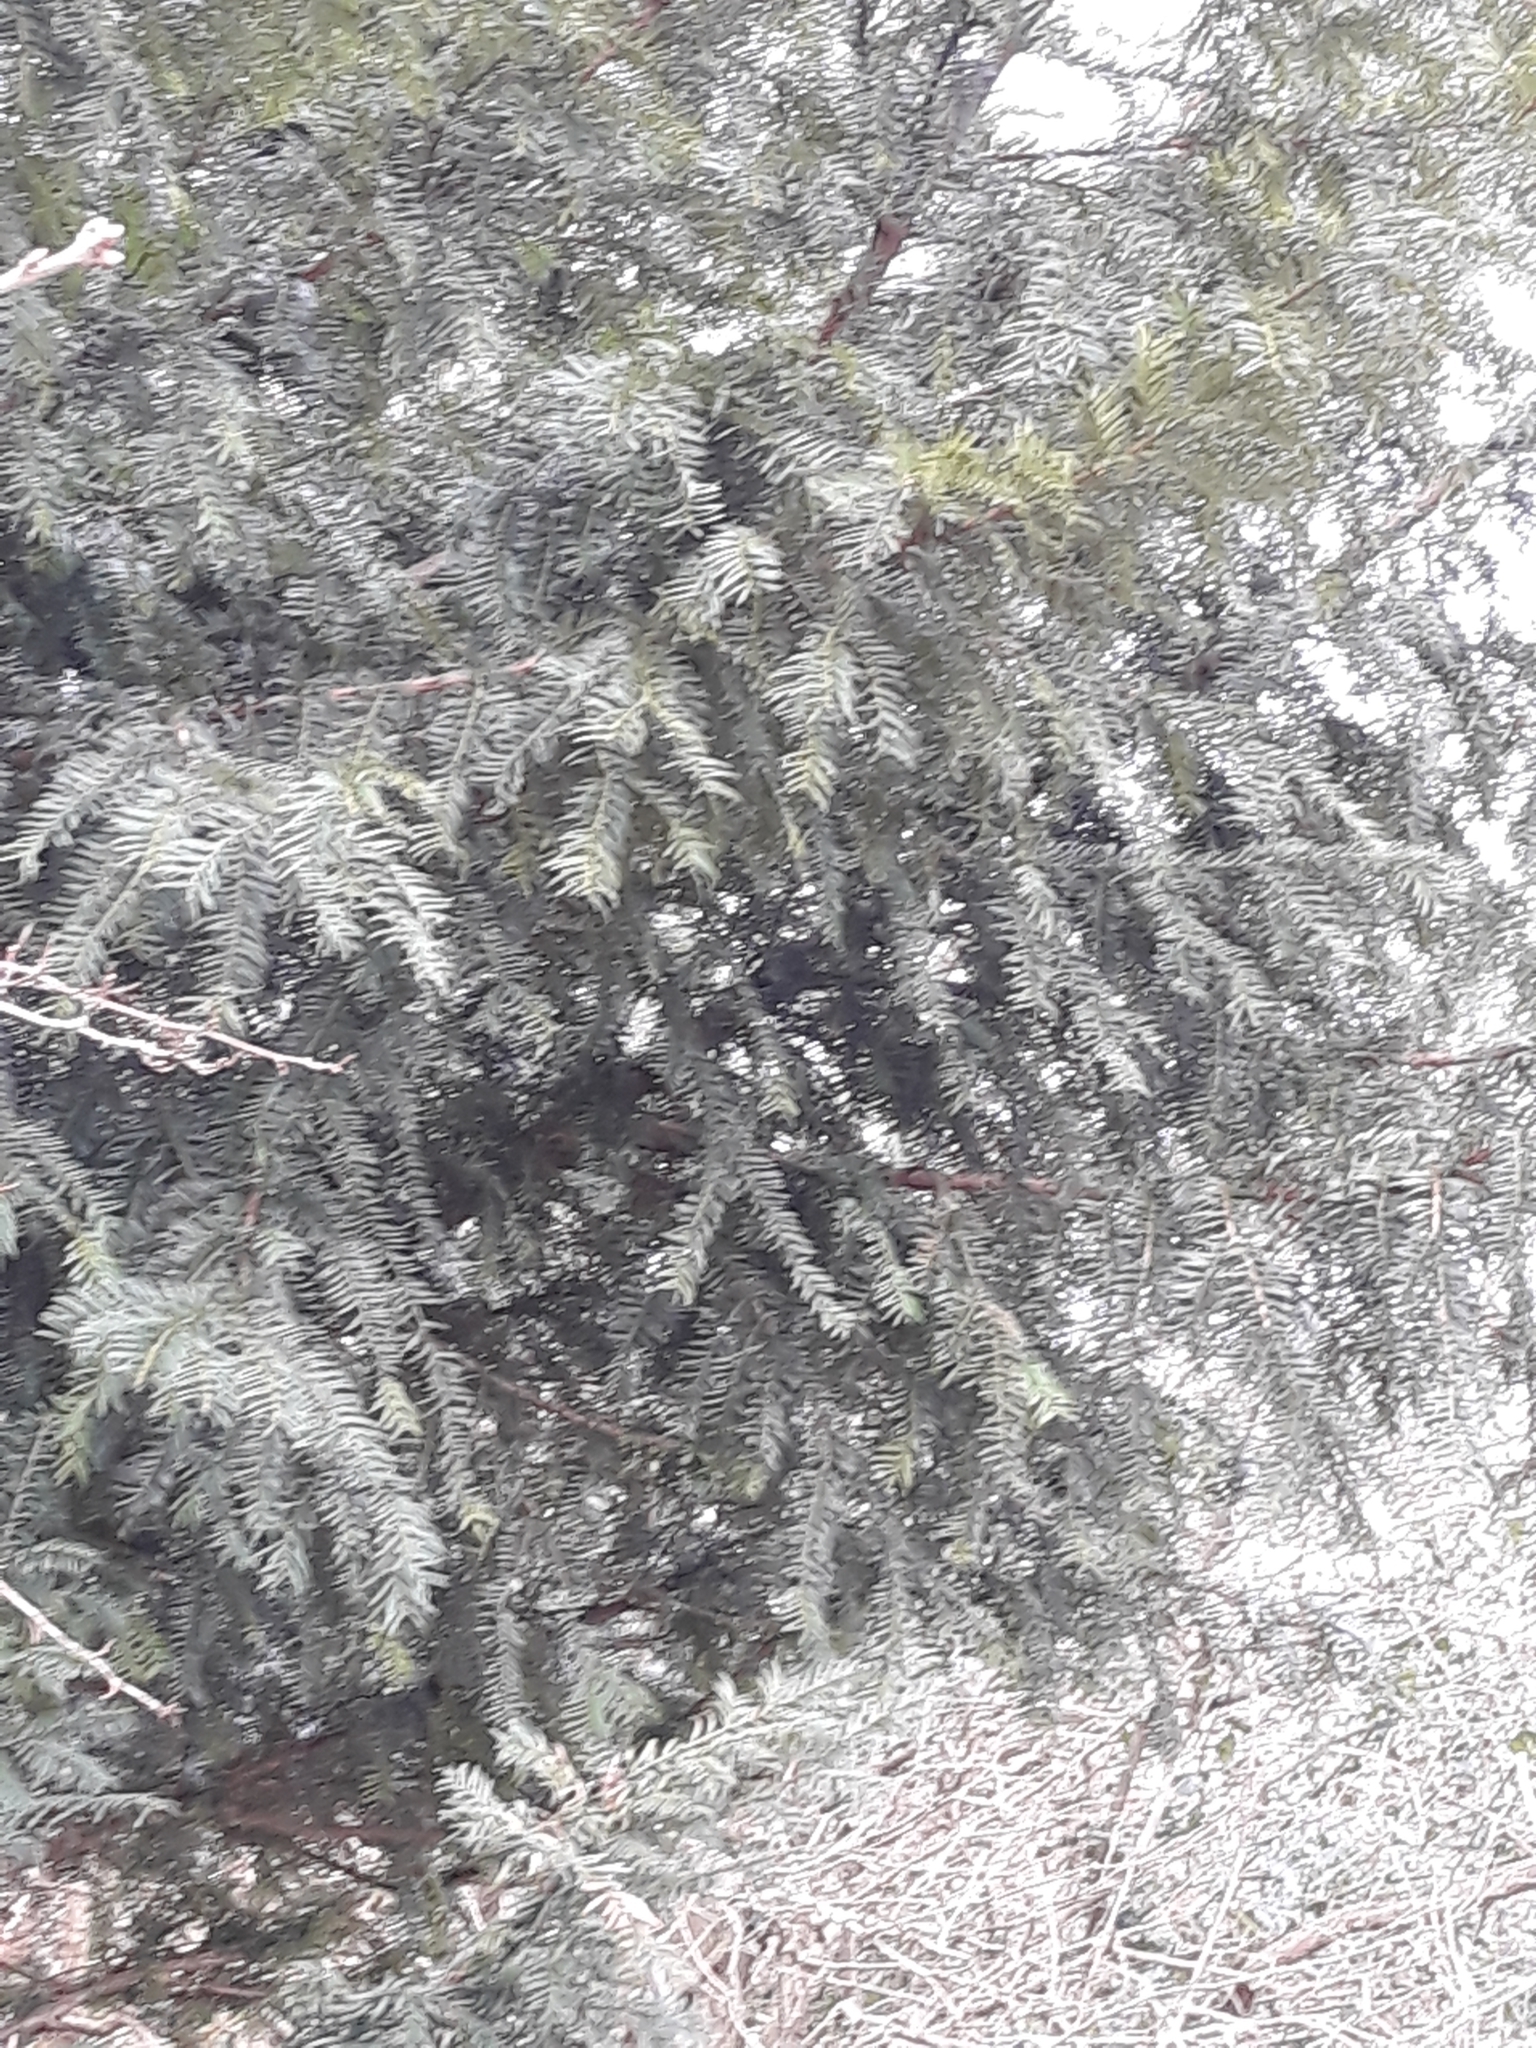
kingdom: Plantae
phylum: Tracheophyta
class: Pinopsida
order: Pinales
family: Taxaceae
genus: Taxus
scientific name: Taxus baccata
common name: Yew
